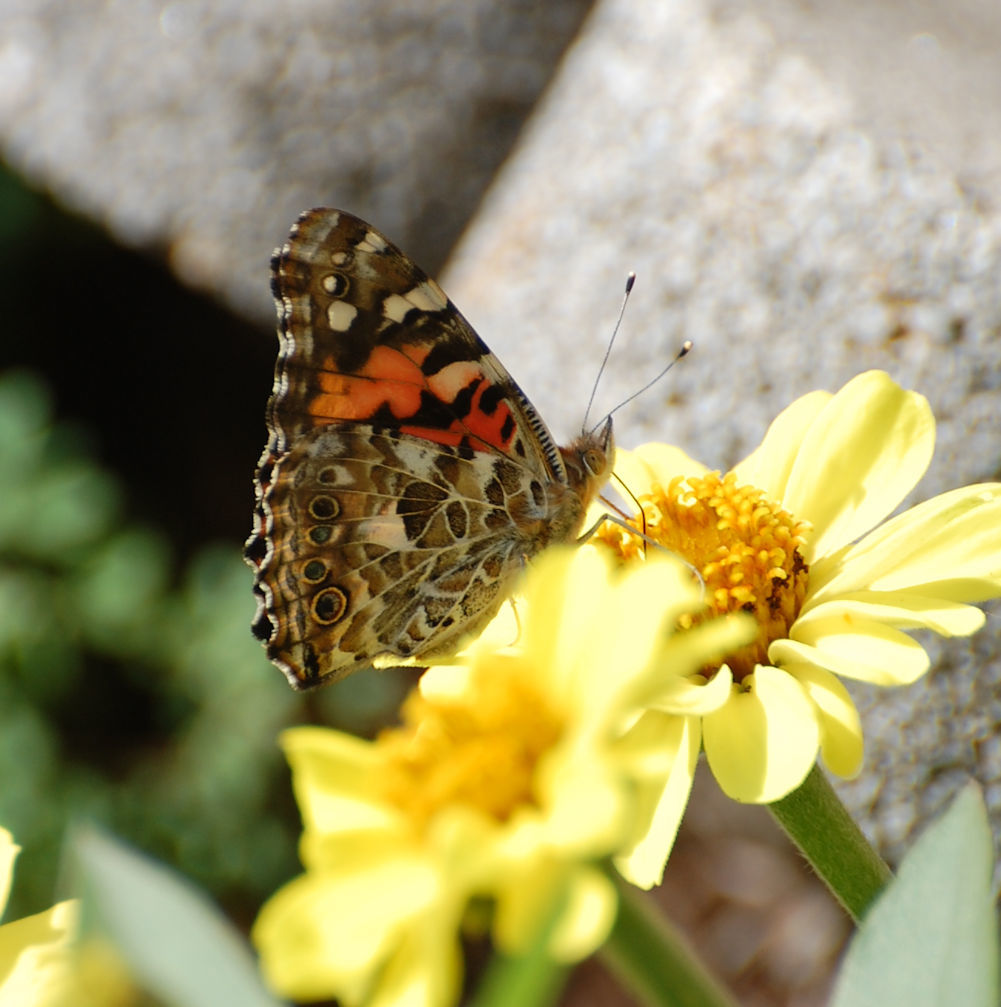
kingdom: Animalia
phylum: Arthropoda
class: Insecta
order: Lepidoptera
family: Nymphalidae
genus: Vanessa
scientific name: Vanessa cardui
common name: Painted lady
